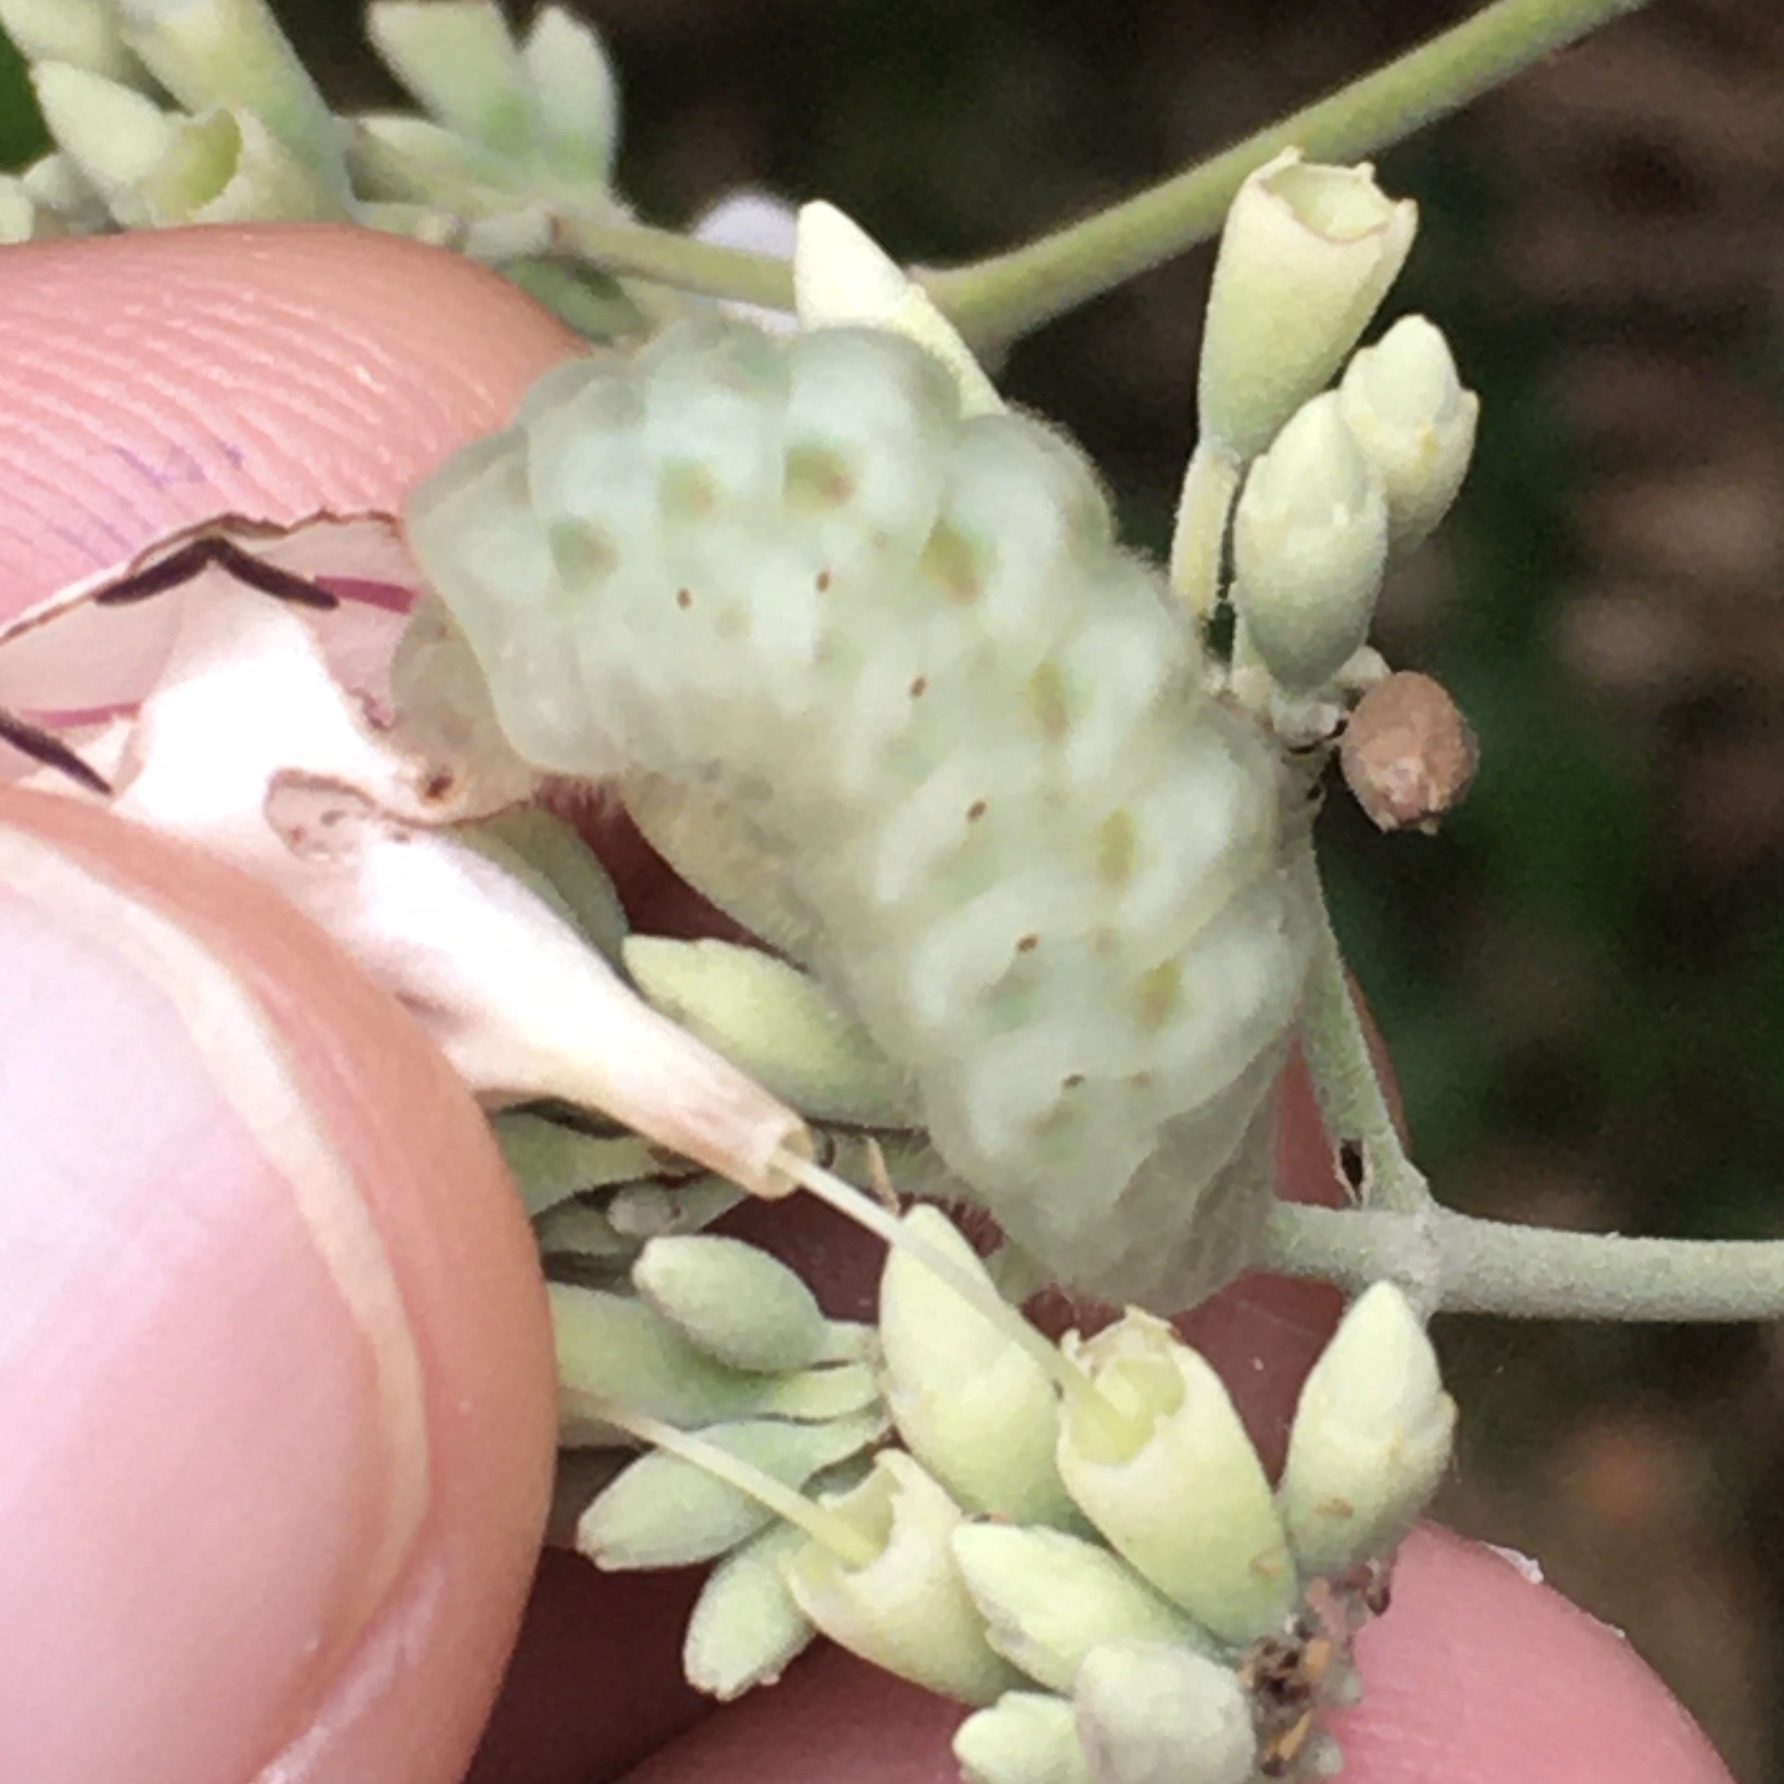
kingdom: Animalia
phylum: Arthropoda
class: Insecta
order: Lepidoptera
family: Lycaenidae
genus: Parrhasius
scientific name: Parrhasius polibetes
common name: Black-spot hairstreak
